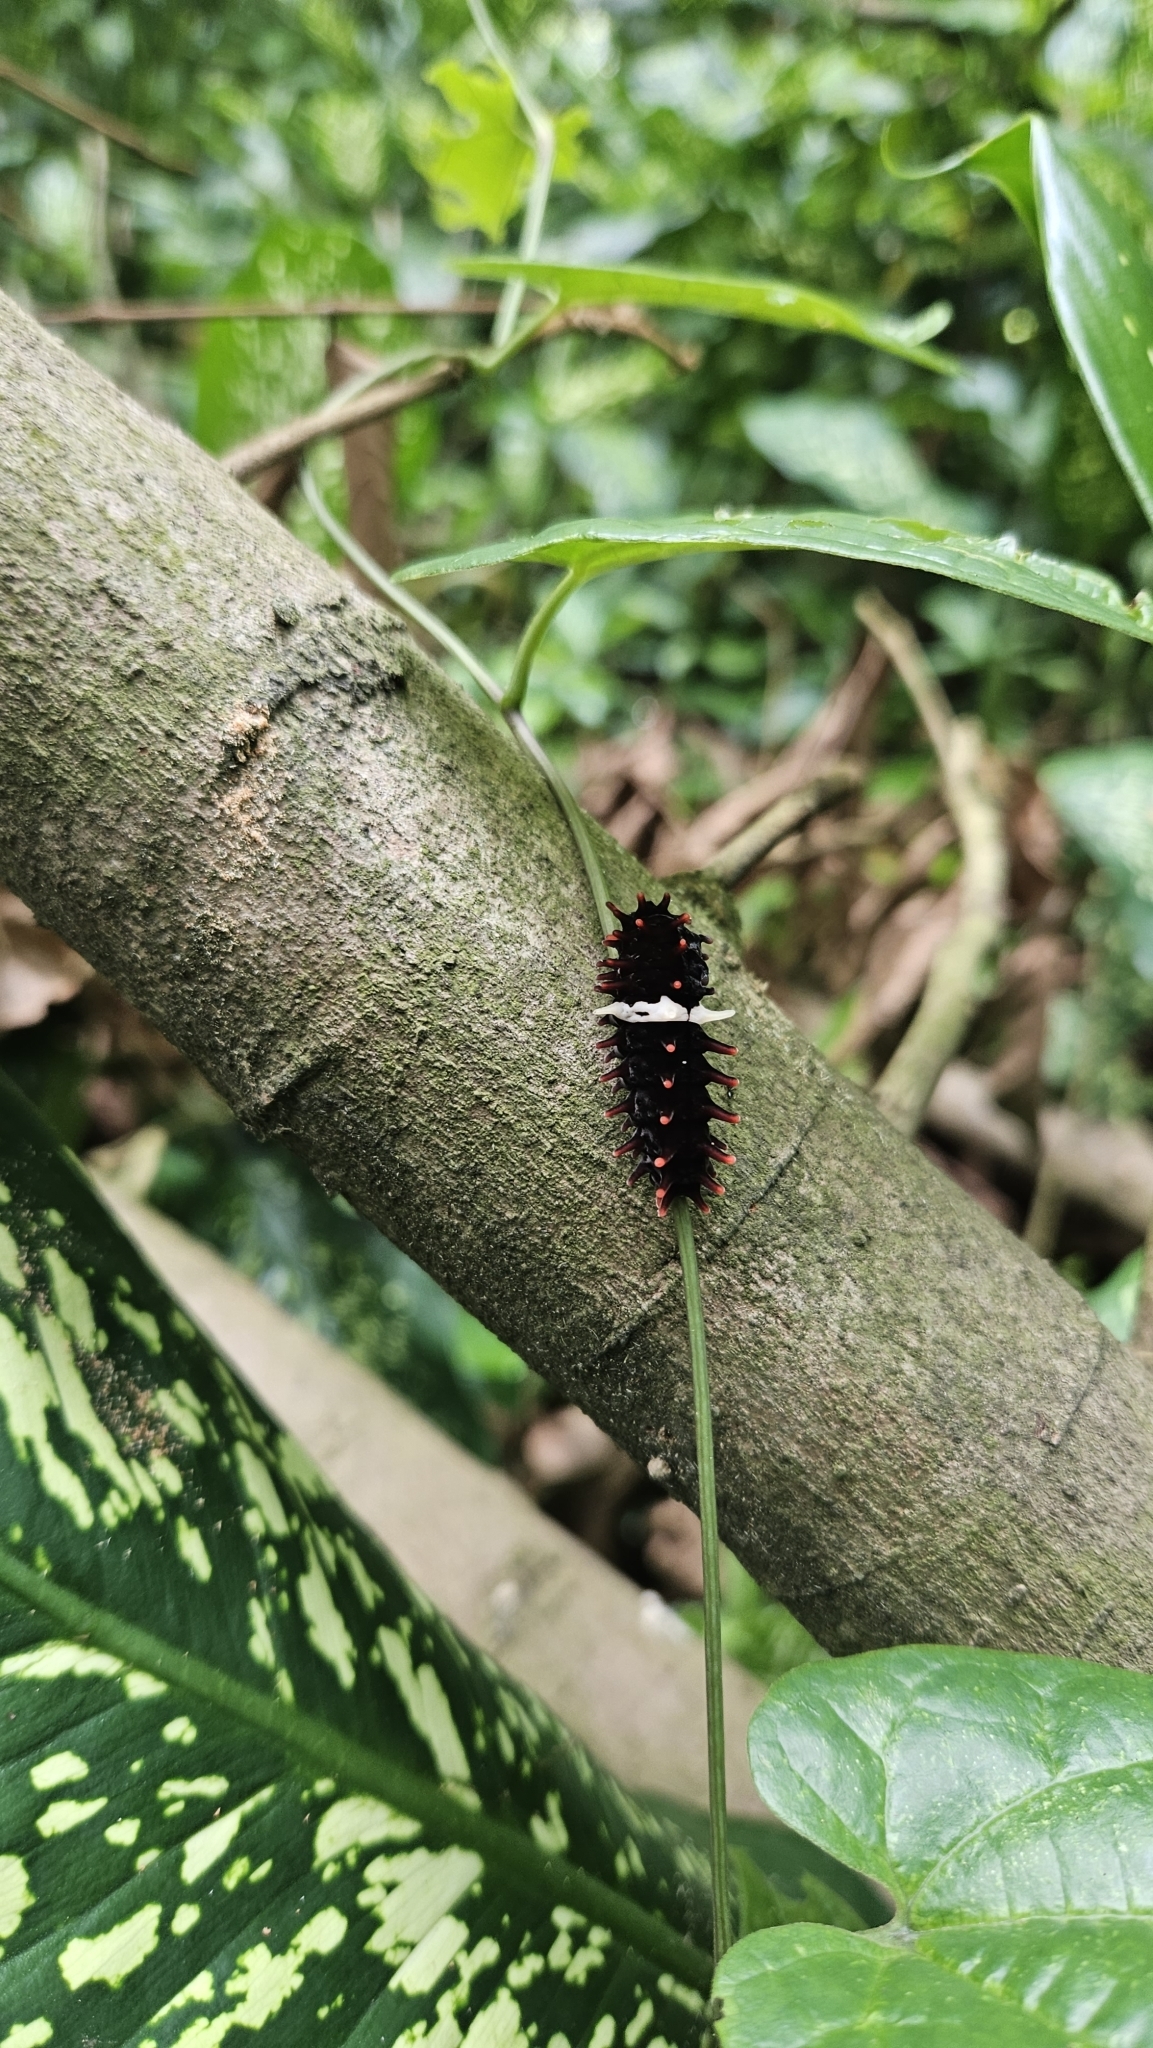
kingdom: Animalia
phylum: Arthropoda
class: Insecta
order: Lepidoptera
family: Papilionidae
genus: Pachliopta
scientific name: Pachliopta aristolochiae
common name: Common rose
